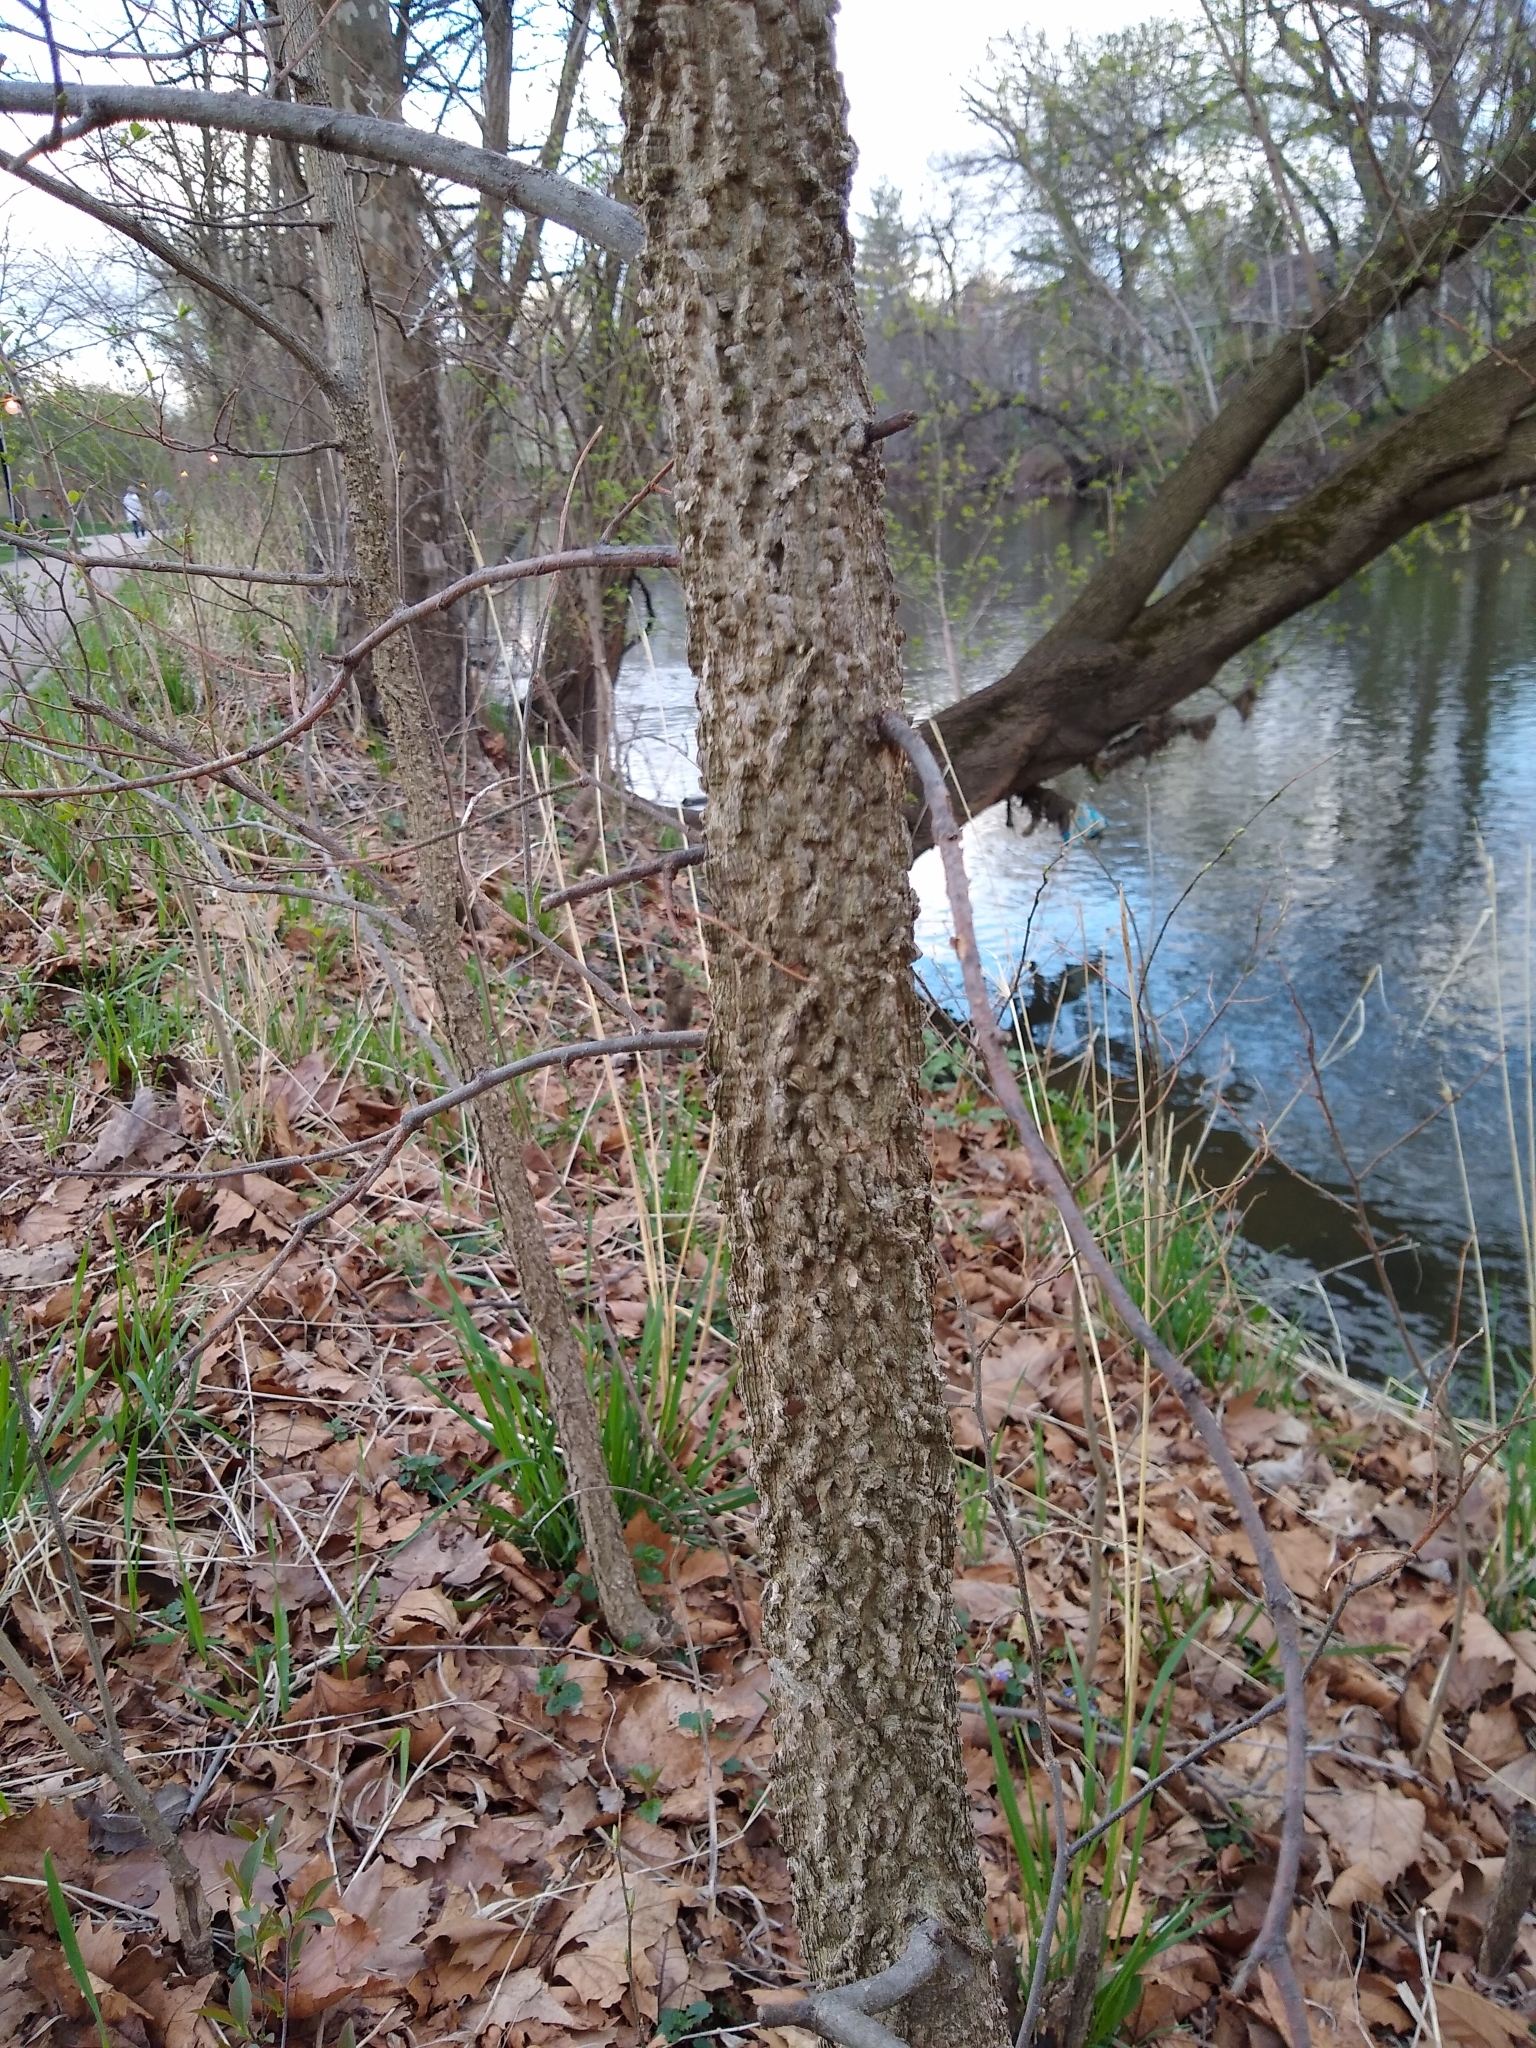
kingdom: Plantae
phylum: Tracheophyta
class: Magnoliopsida
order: Rosales
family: Cannabaceae
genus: Celtis
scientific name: Celtis occidentalis
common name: Common hackberry
